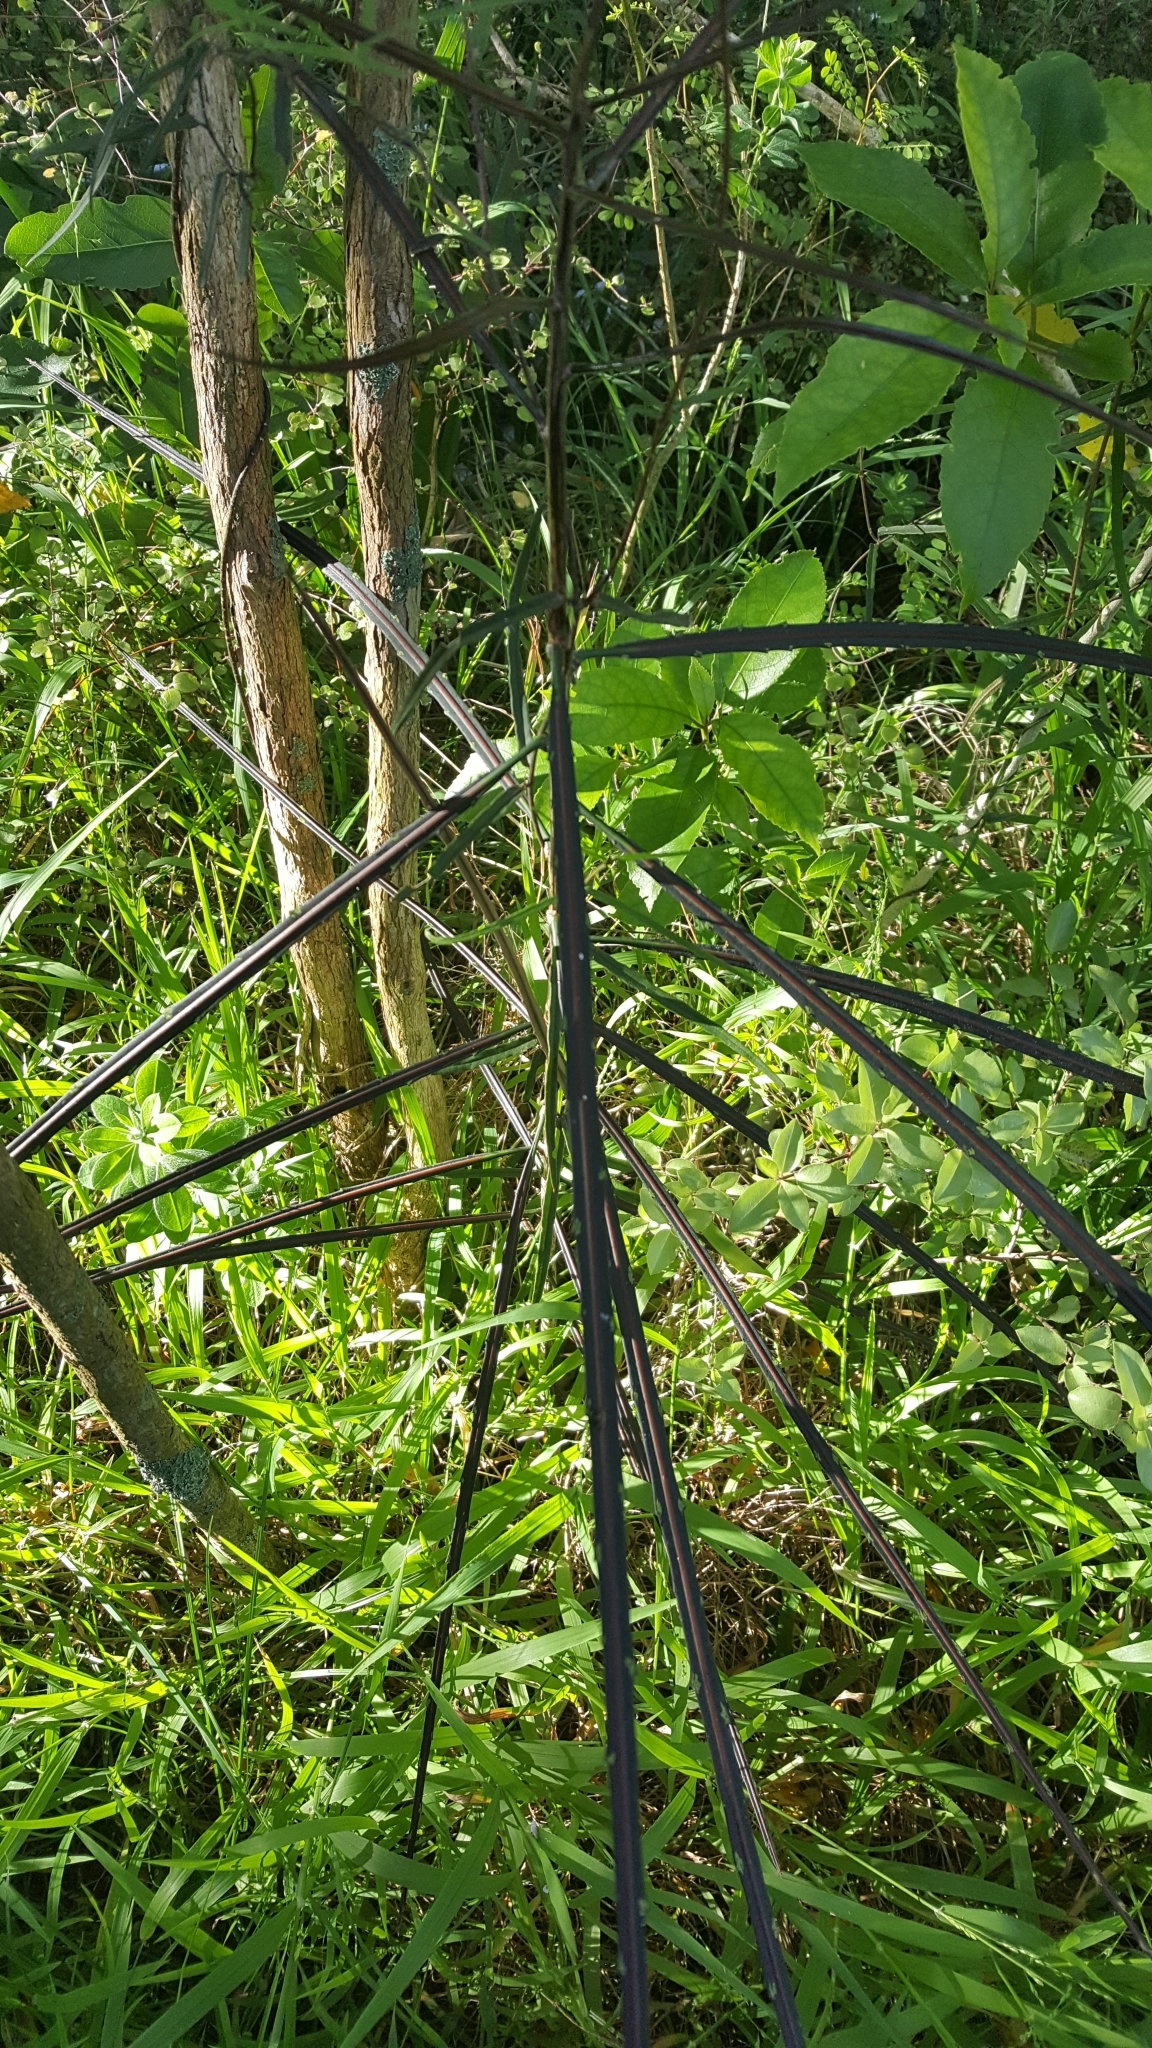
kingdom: Plantae
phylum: Tracheophyta
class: Magnoliopsida
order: Apiales
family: Araliaceae
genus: Pseudopanax
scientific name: Pseudopanax crassifolius
